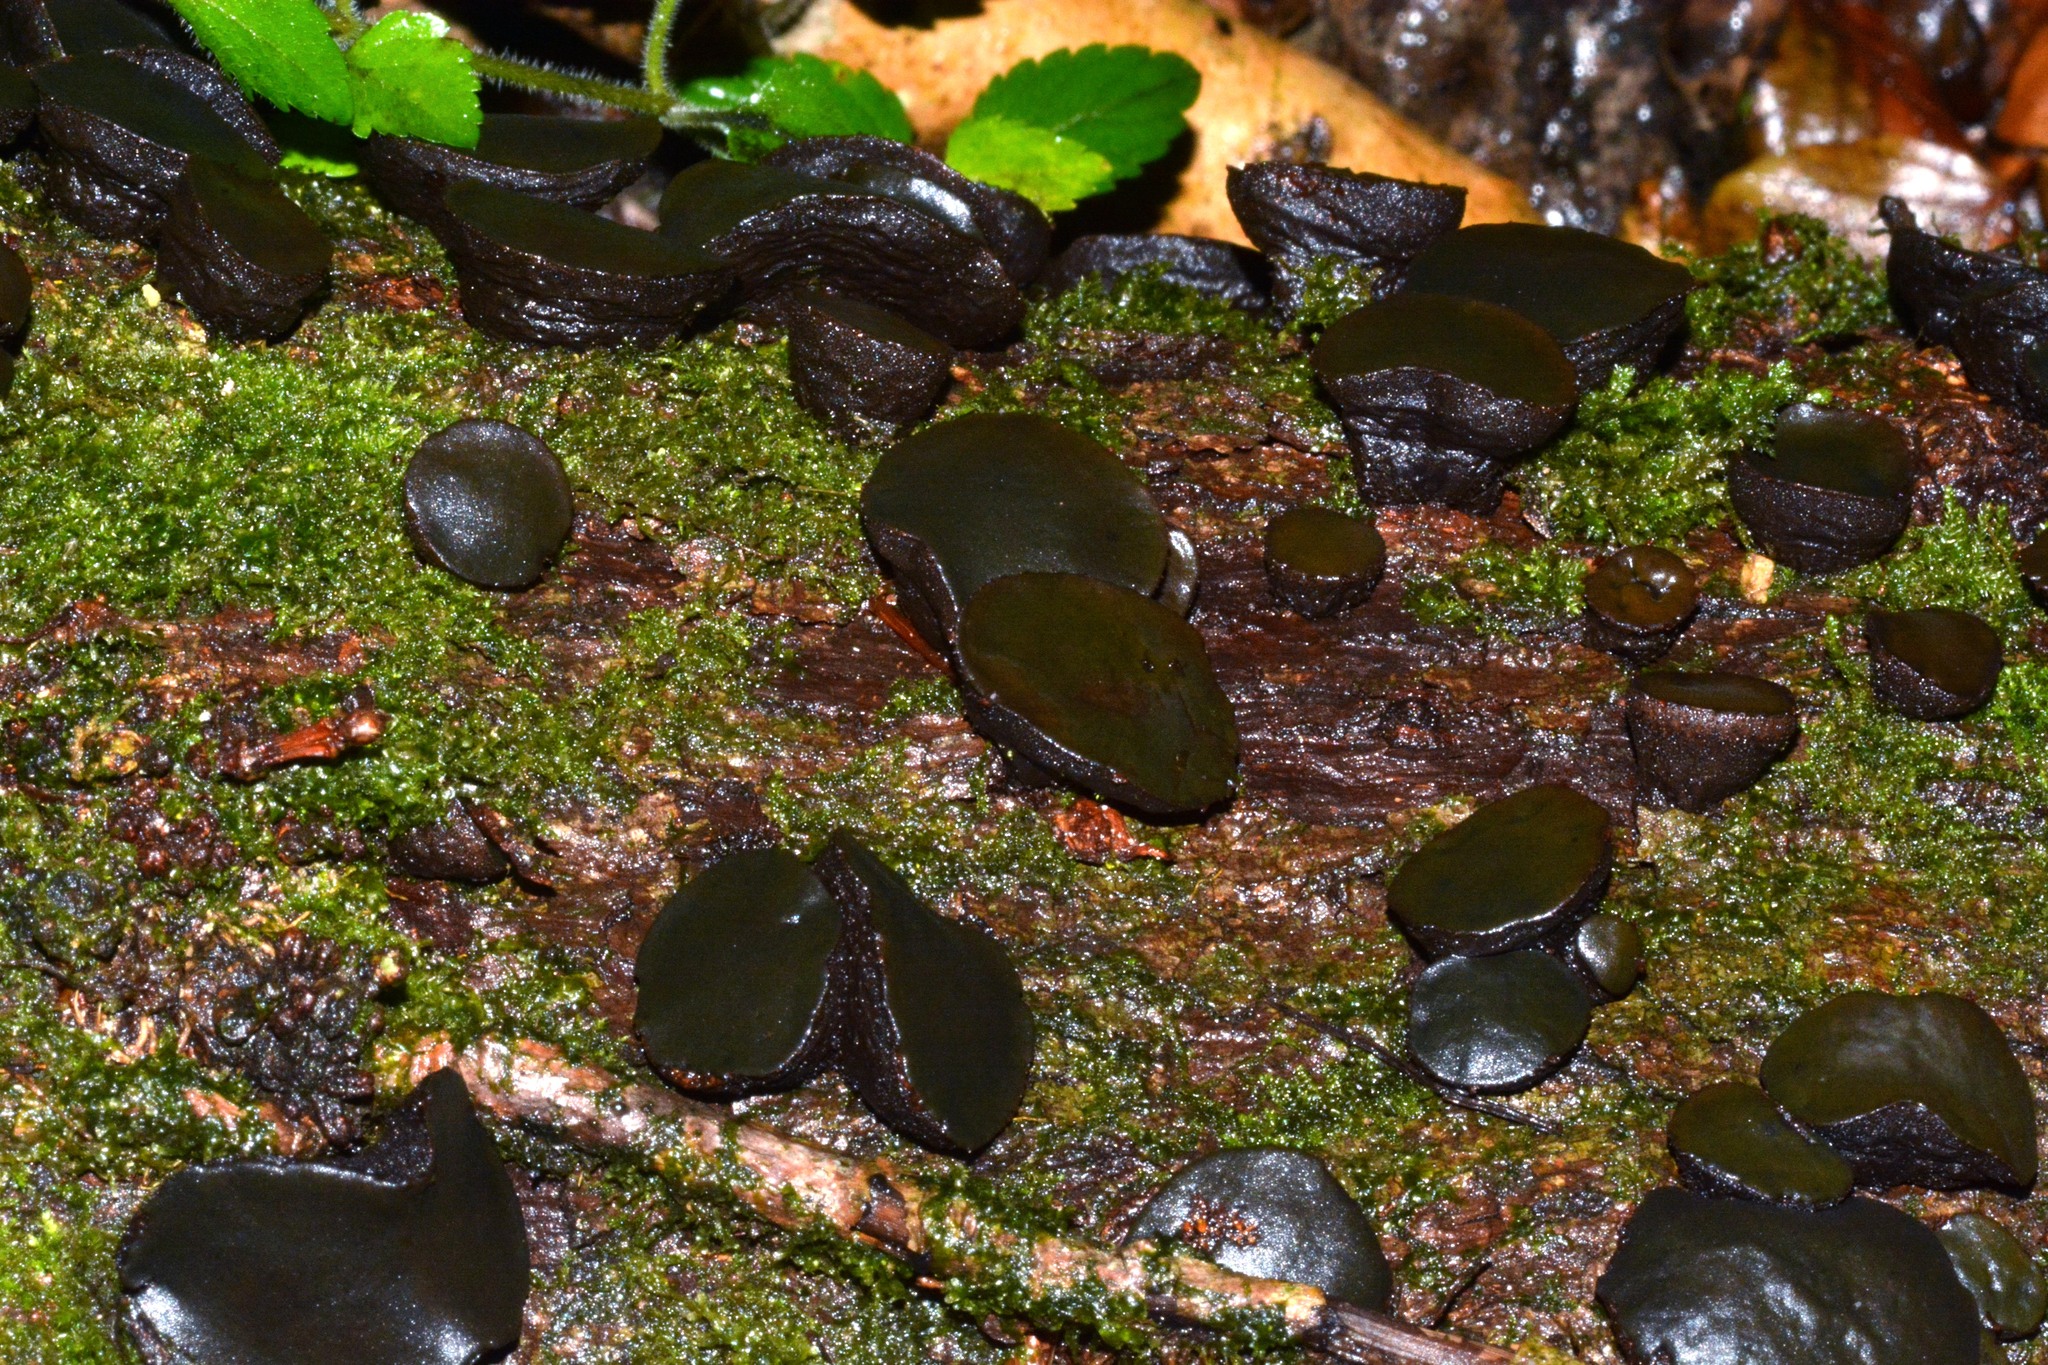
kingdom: Fungi
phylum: Ascomycota
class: Leotiomycetes
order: Phacidiales
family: Phacidiaceae
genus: Bulgaria
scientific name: Bulgaria inquinans
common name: Black bulgar
